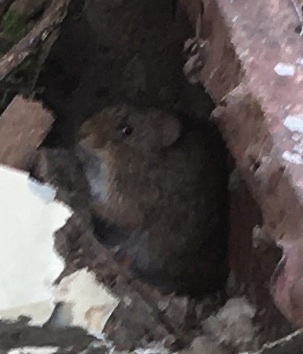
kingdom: Animalia
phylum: Chordata
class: Mammalia
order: Rodentia
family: Cricetidae
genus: Sigmodon
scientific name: Sigmodon hispidus
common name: Hispid cotton rat
